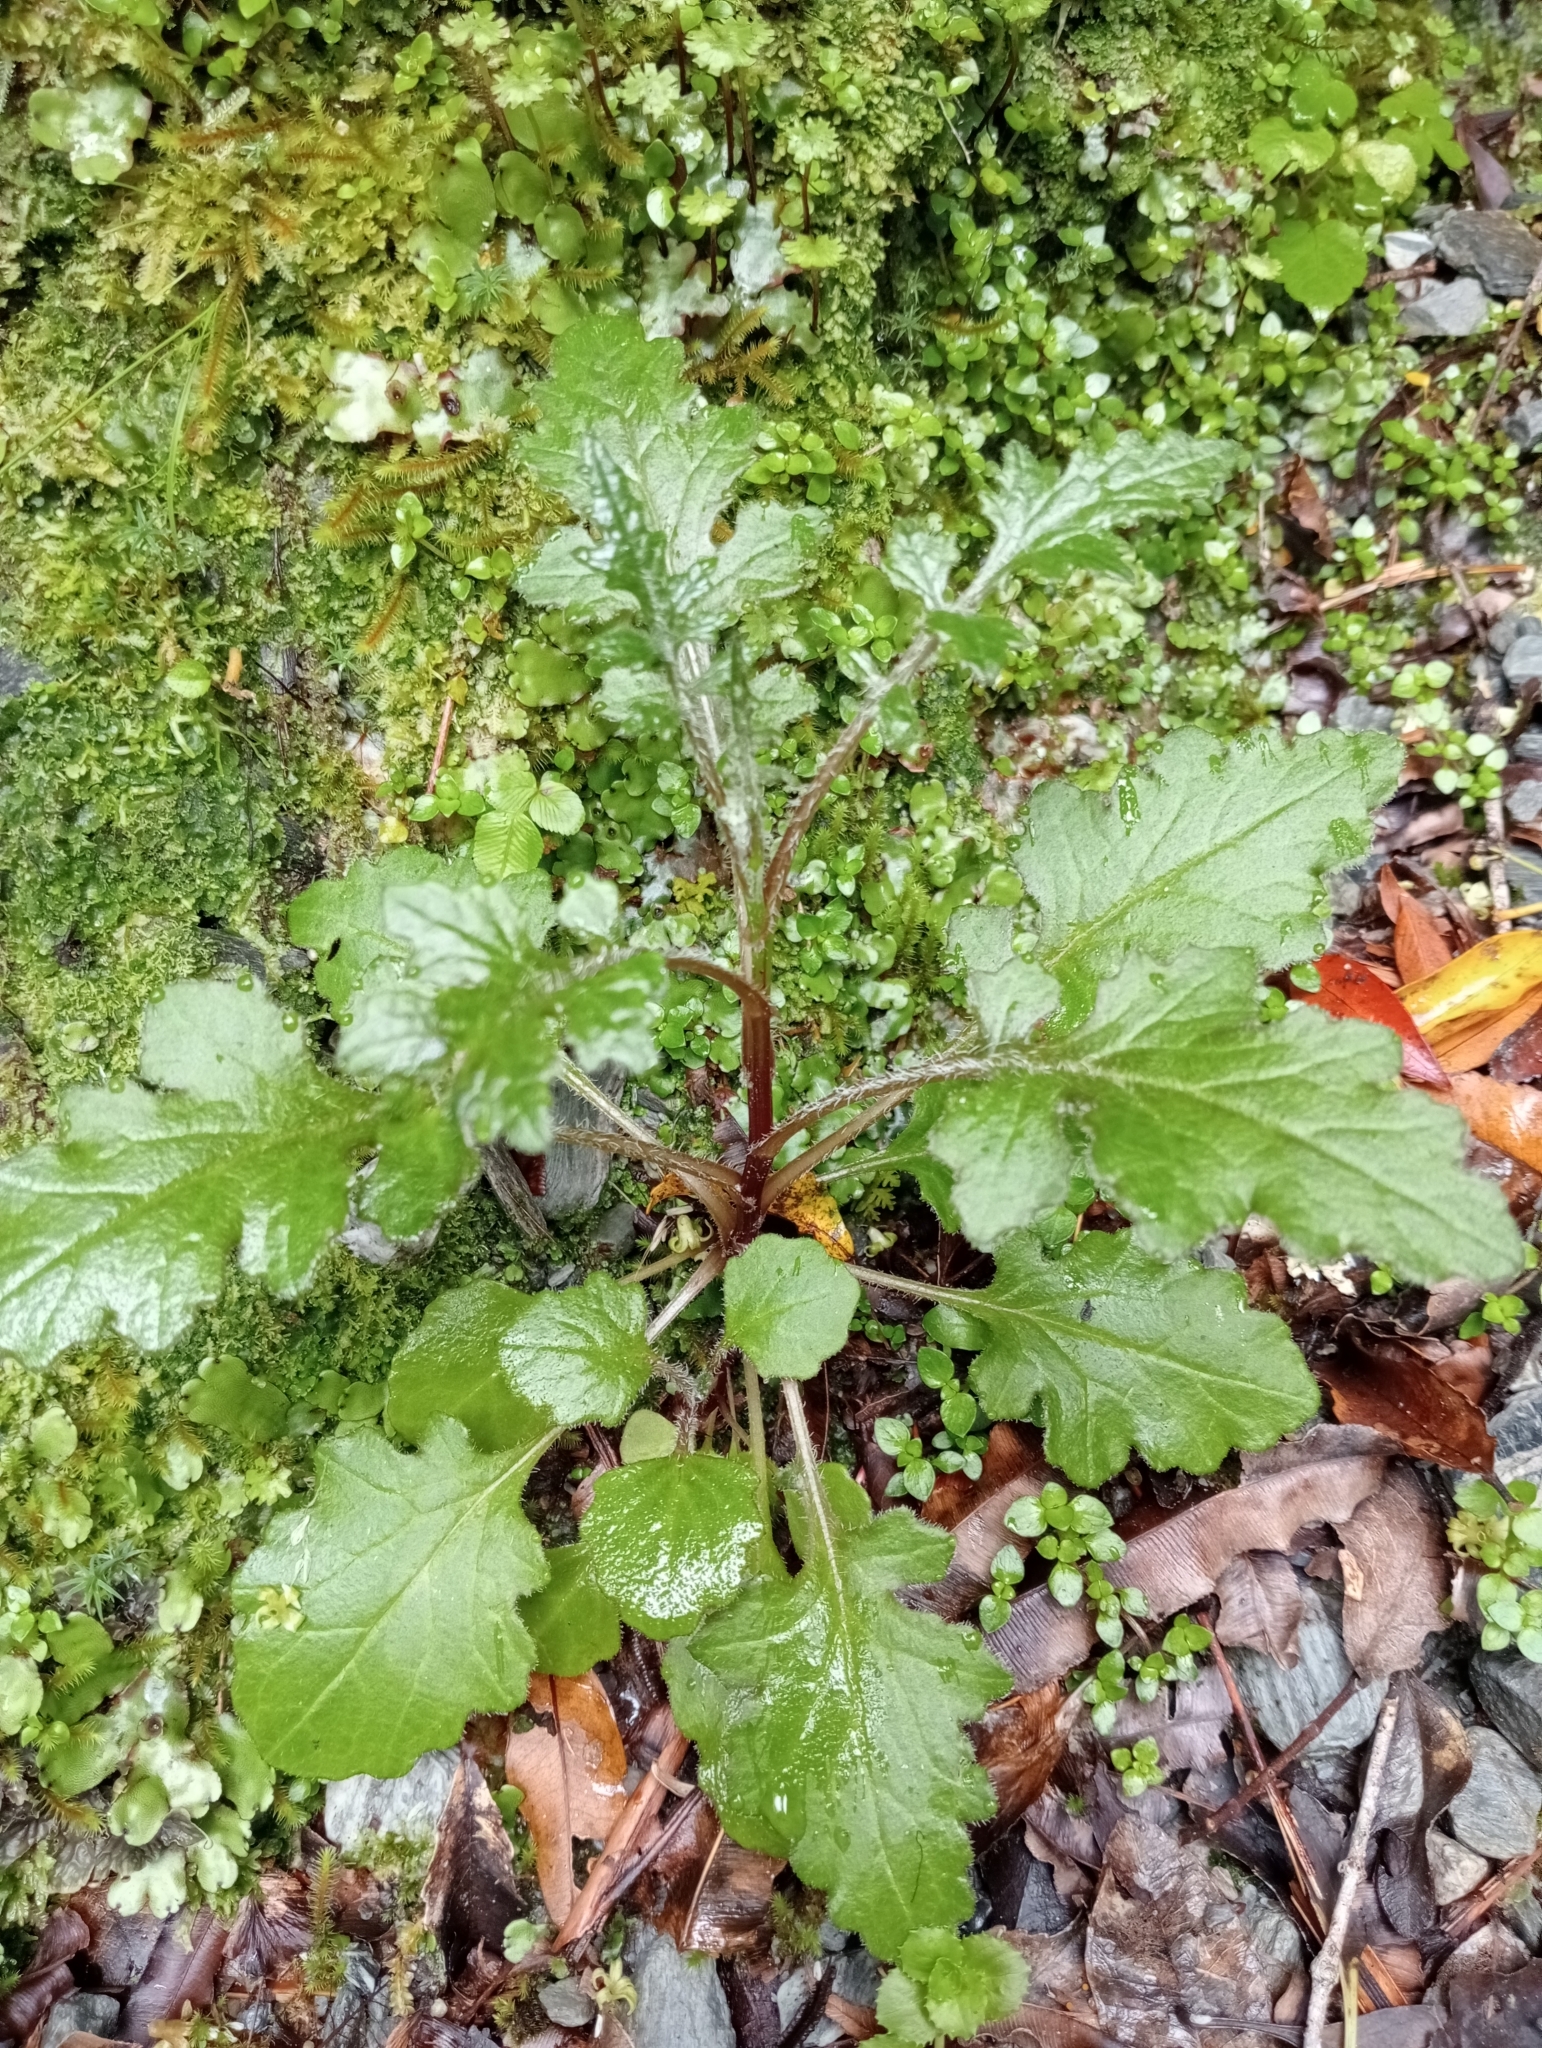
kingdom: Plantae
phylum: Tracheophyta
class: Magnoliopsida
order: Asterales
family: Asteraceae
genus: Senecio
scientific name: Senecio wairauensis
